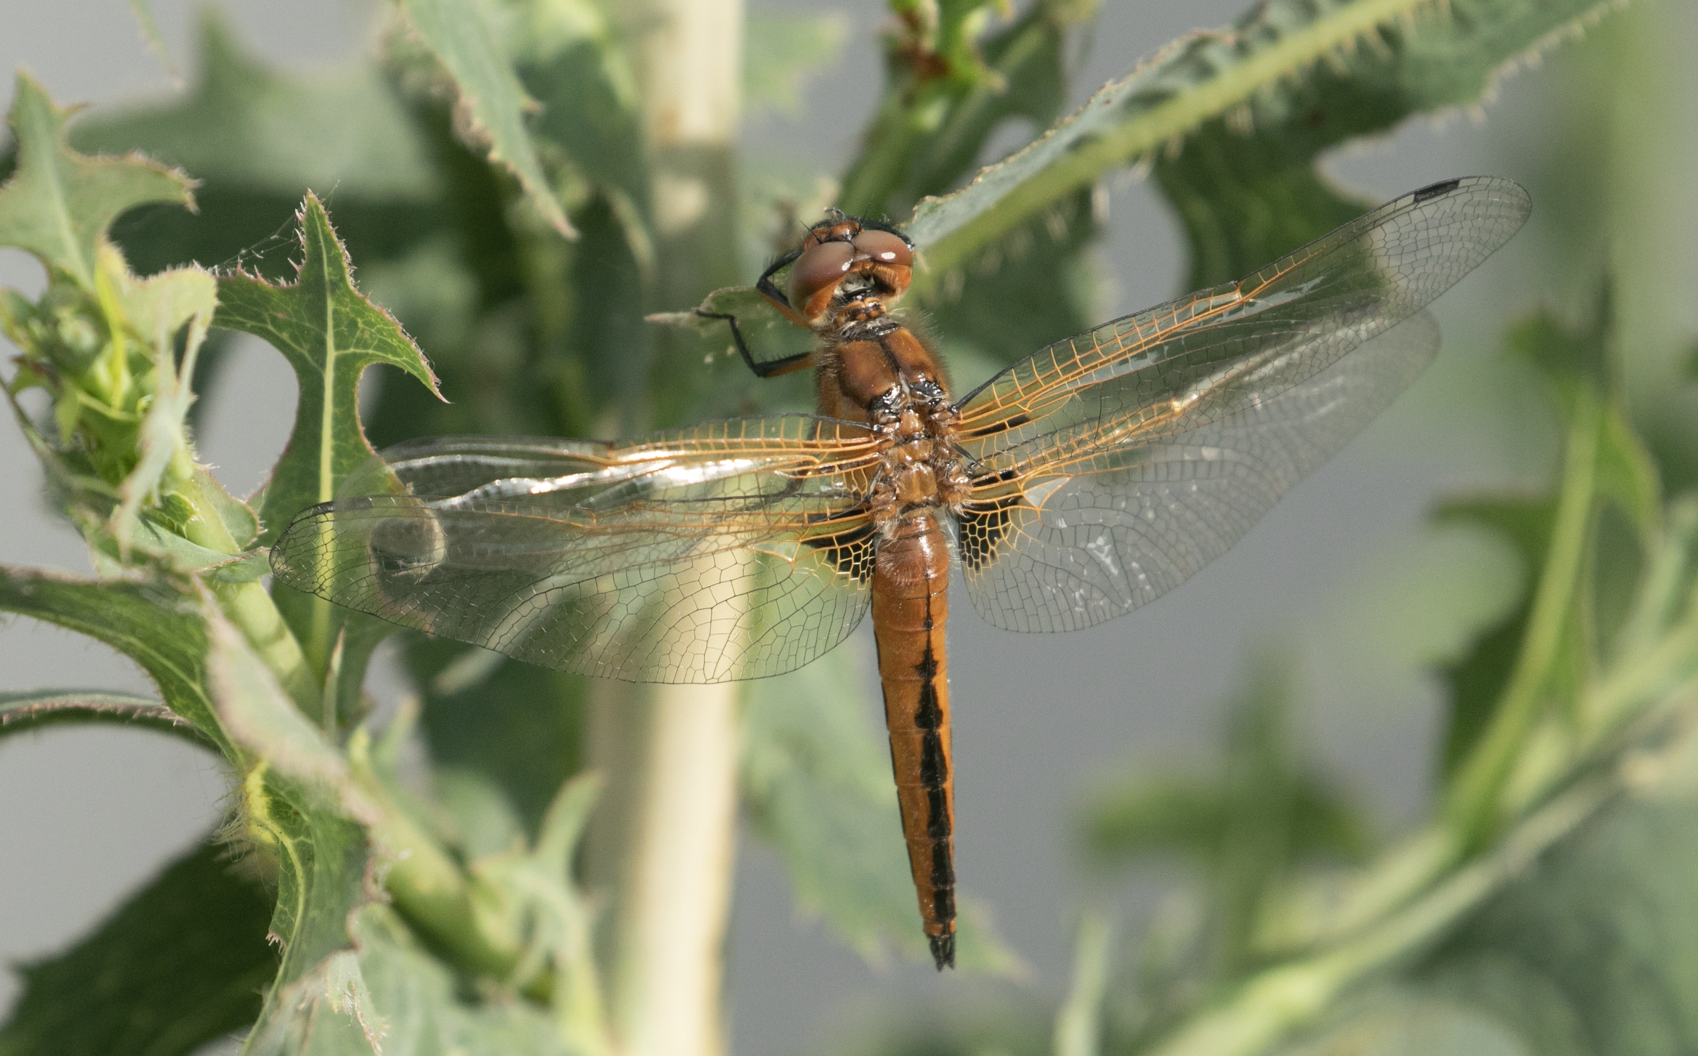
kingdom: Animalia
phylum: Arthropoda
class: Insecta
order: Odonata
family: Libellulidae
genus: Libellula
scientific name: Libellula fulva
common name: Blue chaser
